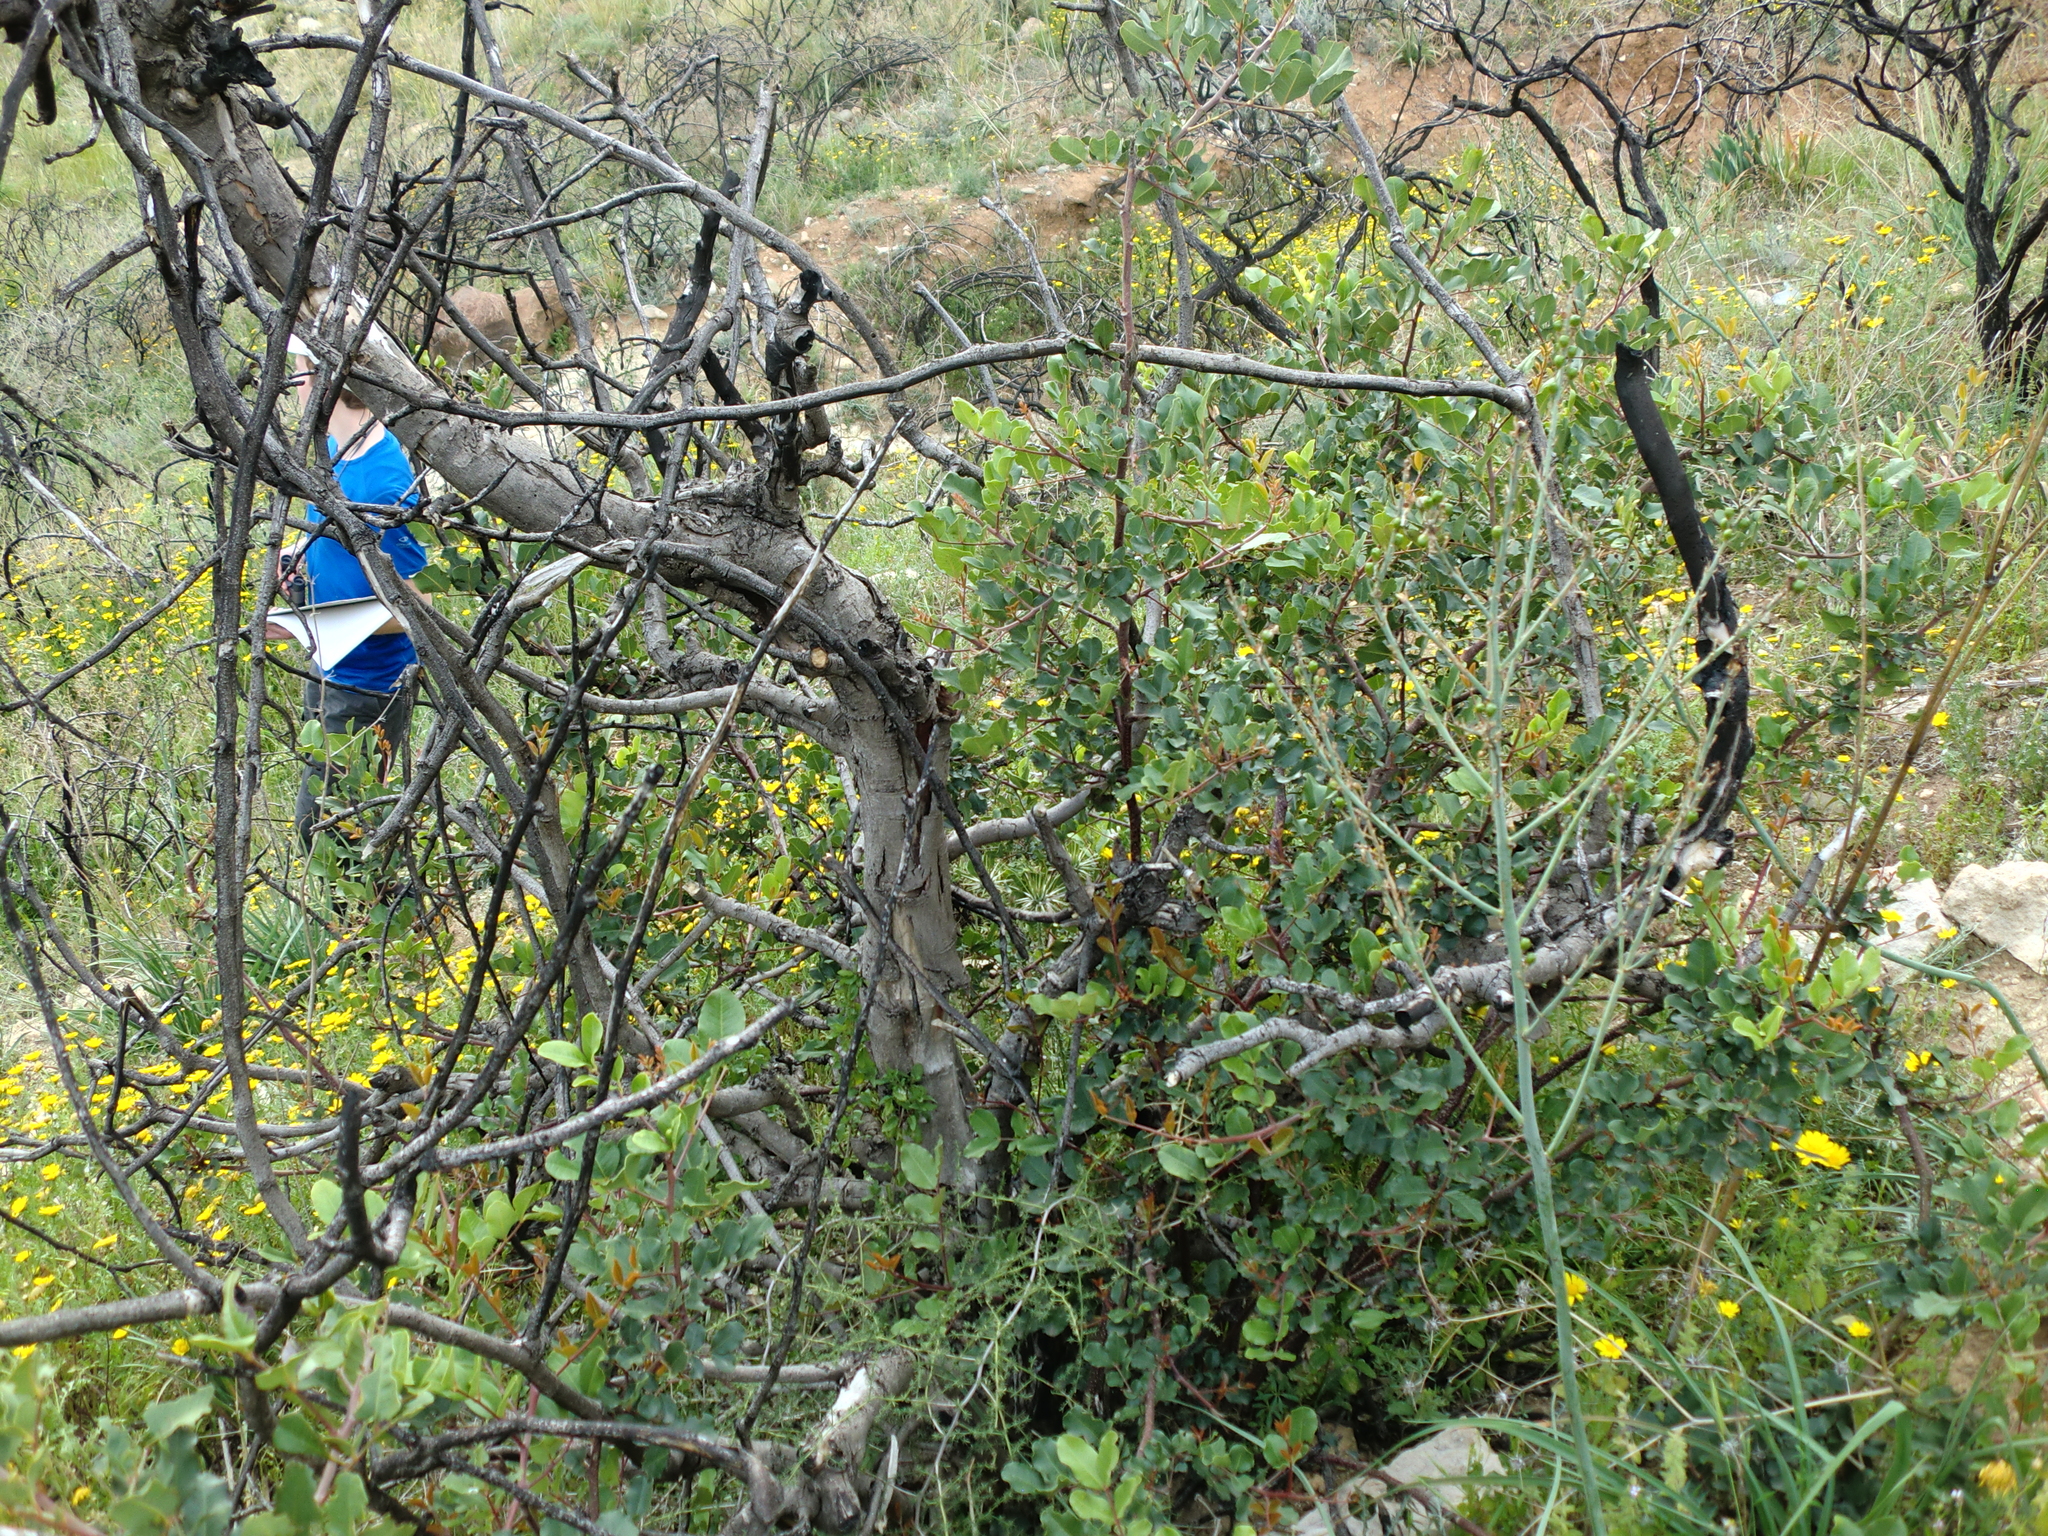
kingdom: Plantae
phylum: Tracheophyta
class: Magnoliopsida
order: Fabales
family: Fabaceae
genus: Ceratonia
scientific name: Ceratonia siliqua
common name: Carob
